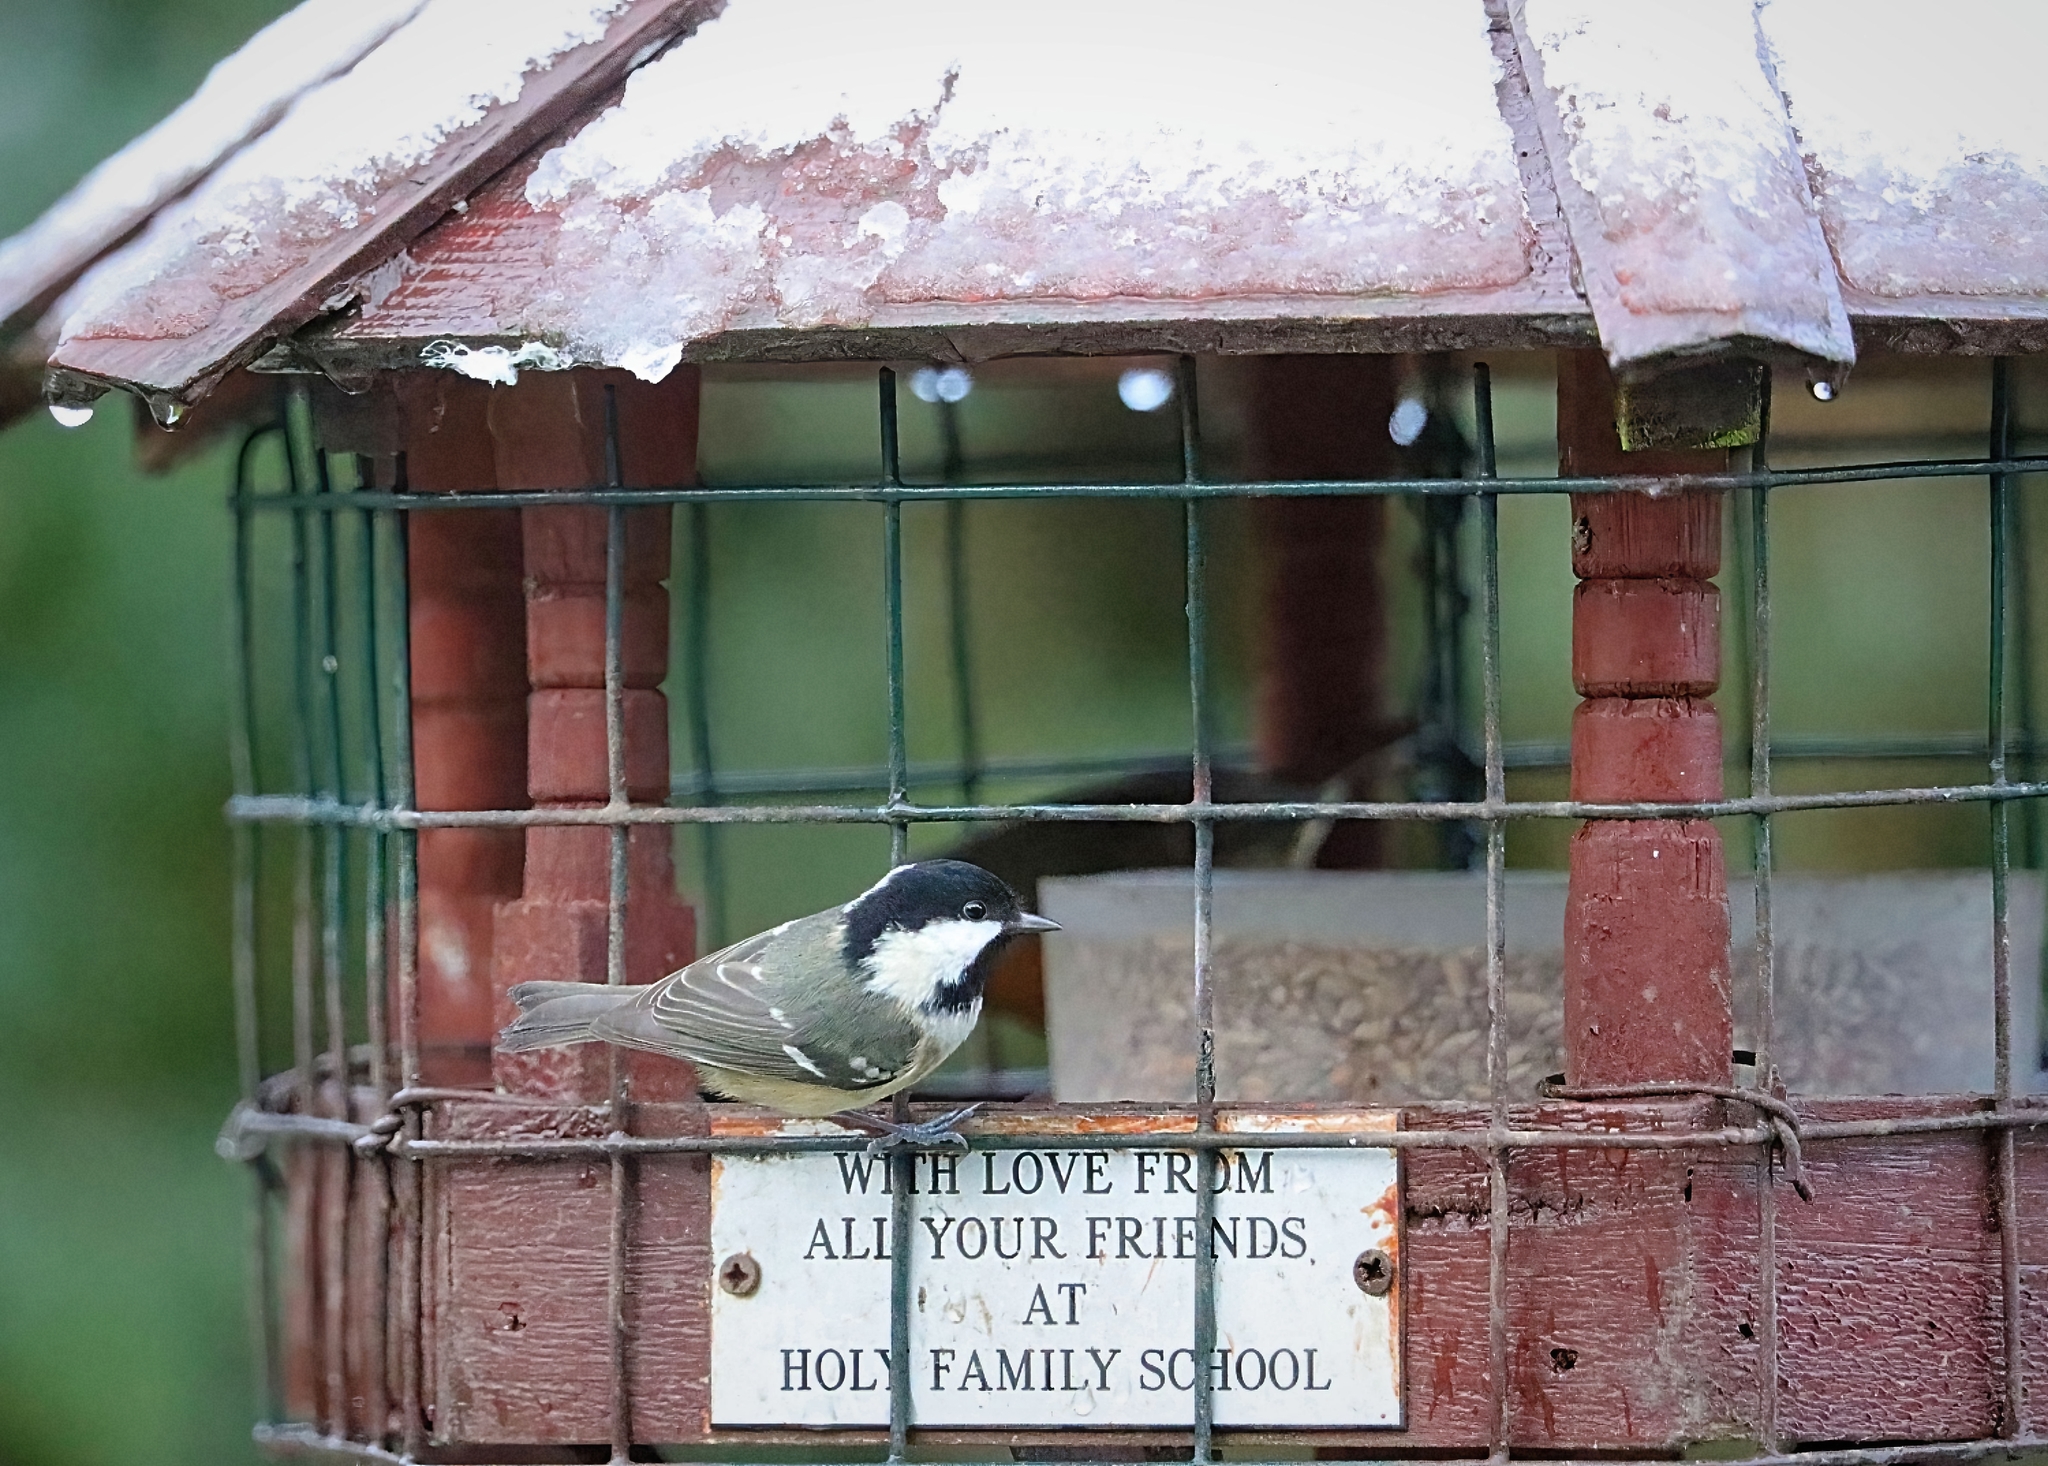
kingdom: Animalia
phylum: Chordata
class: Aves
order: Passeriformes
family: Paridae
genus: Periparus
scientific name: Periparus ater
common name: Coal tit
